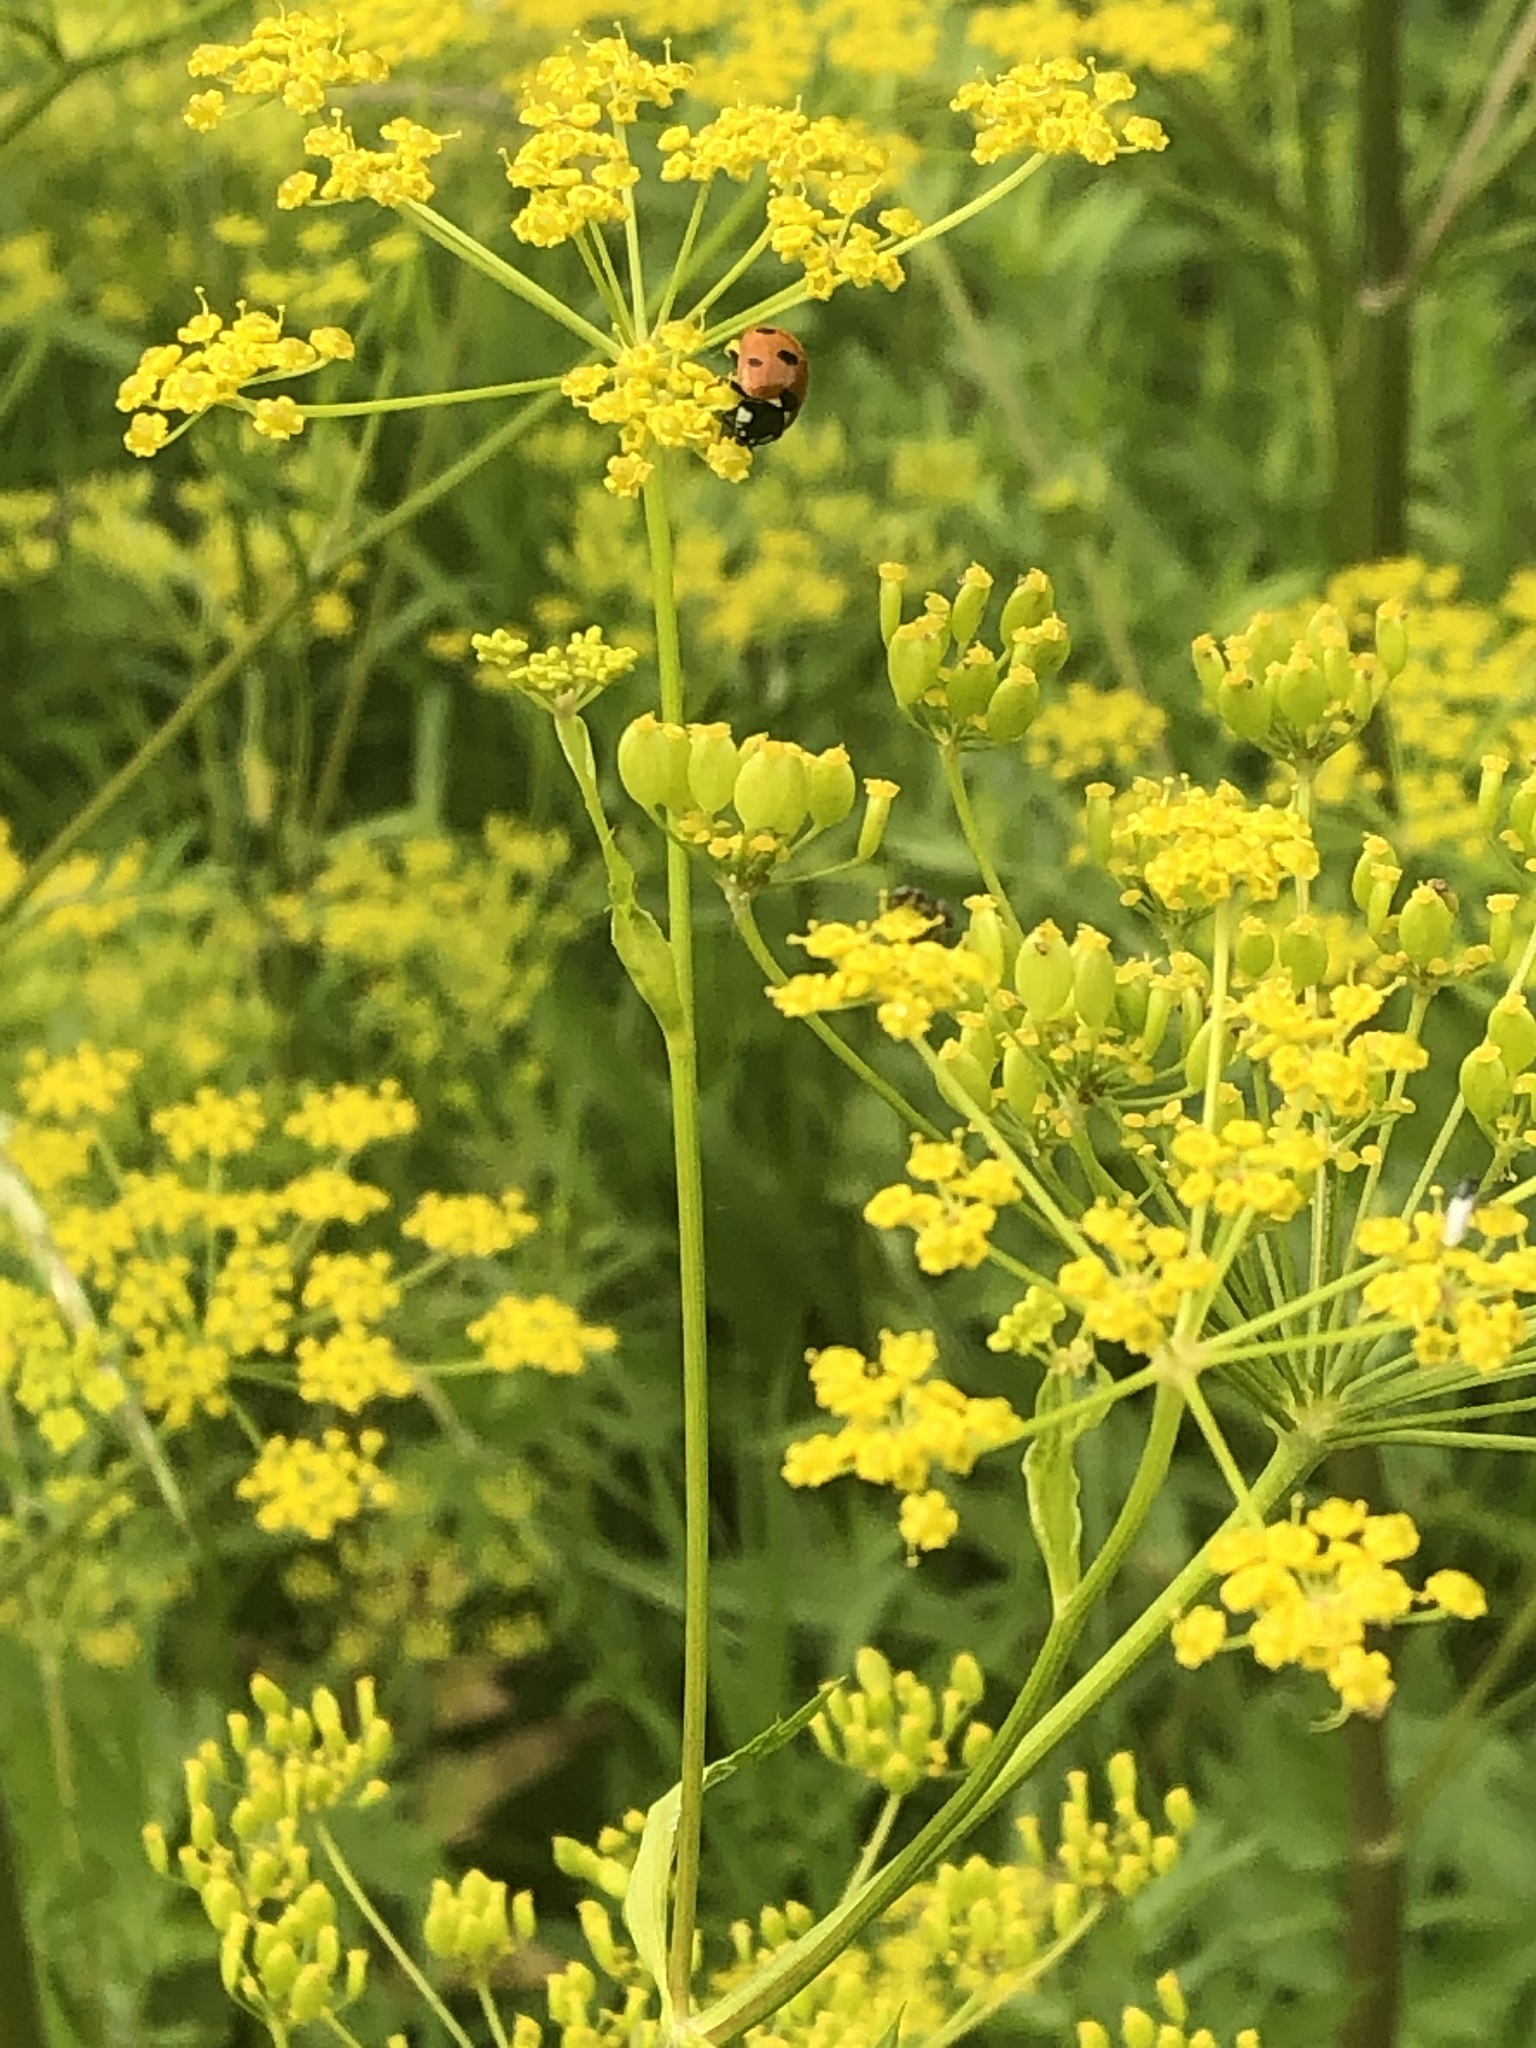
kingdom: Animalia
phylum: Arthropoda
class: Insecta
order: Coleoptera
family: Coccinellidae
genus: Coccinella
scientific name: Coccinella septempunctata
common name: Sevenspotted lady beetle
